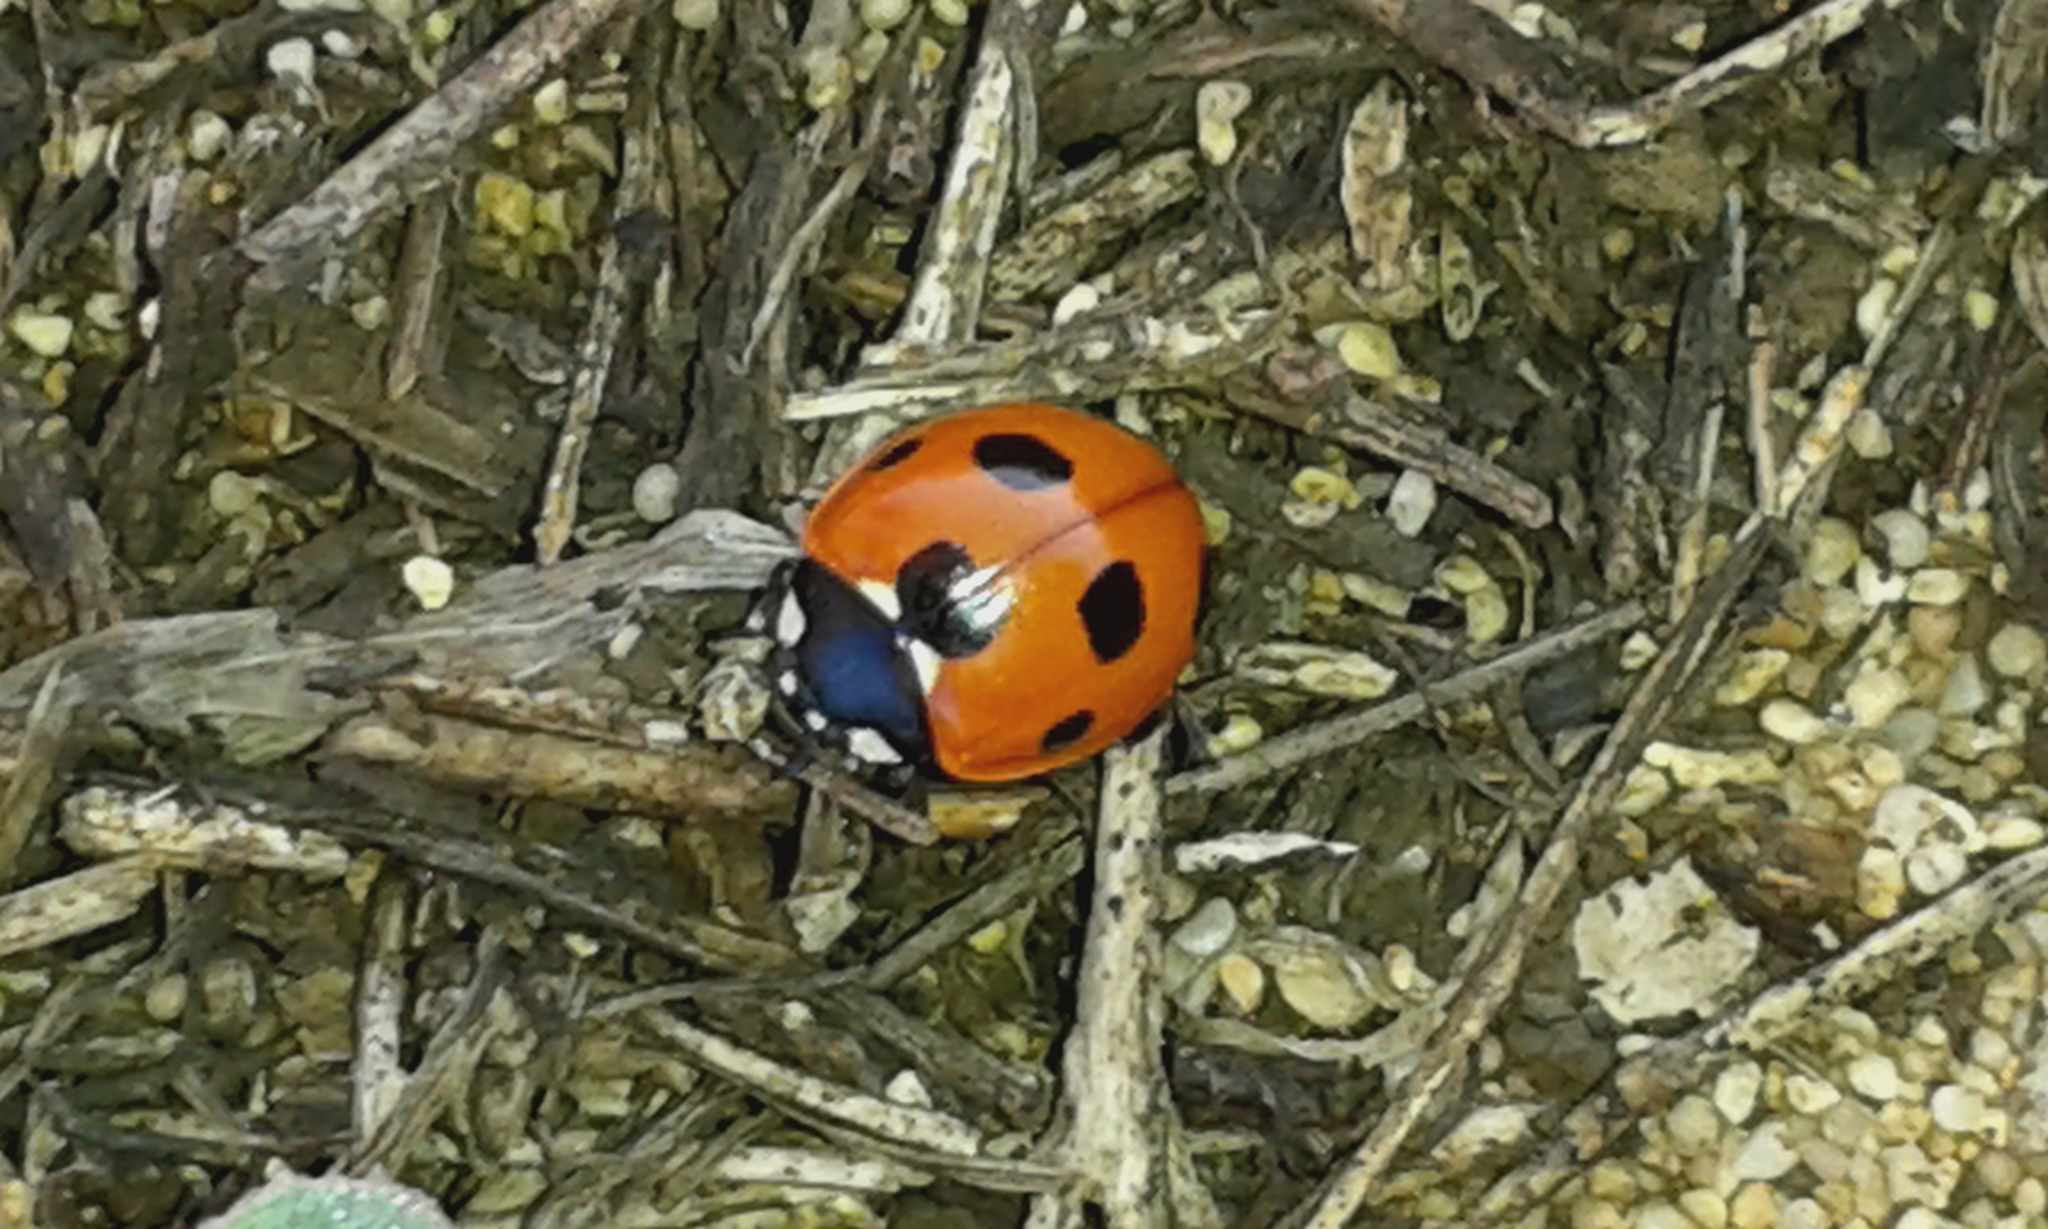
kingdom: Animalia
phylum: Arthropoda
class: Insecta
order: Coleoptera
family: Coccinellidae
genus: Coccinella
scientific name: Coccinella septempunctata
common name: Sevenspotted lady beetle
